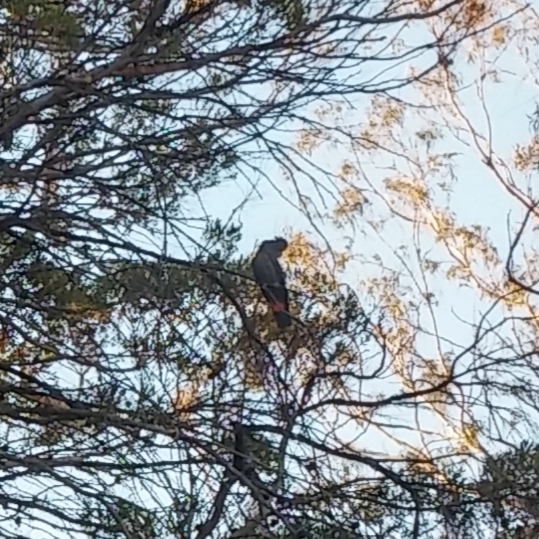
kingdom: Animalia
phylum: Chordata
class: Aves
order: Psittaciformes
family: Psittacidae
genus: Calyptorhynchus
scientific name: Calyptorhynchus banksii
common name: Red-tailed black cockatoo
